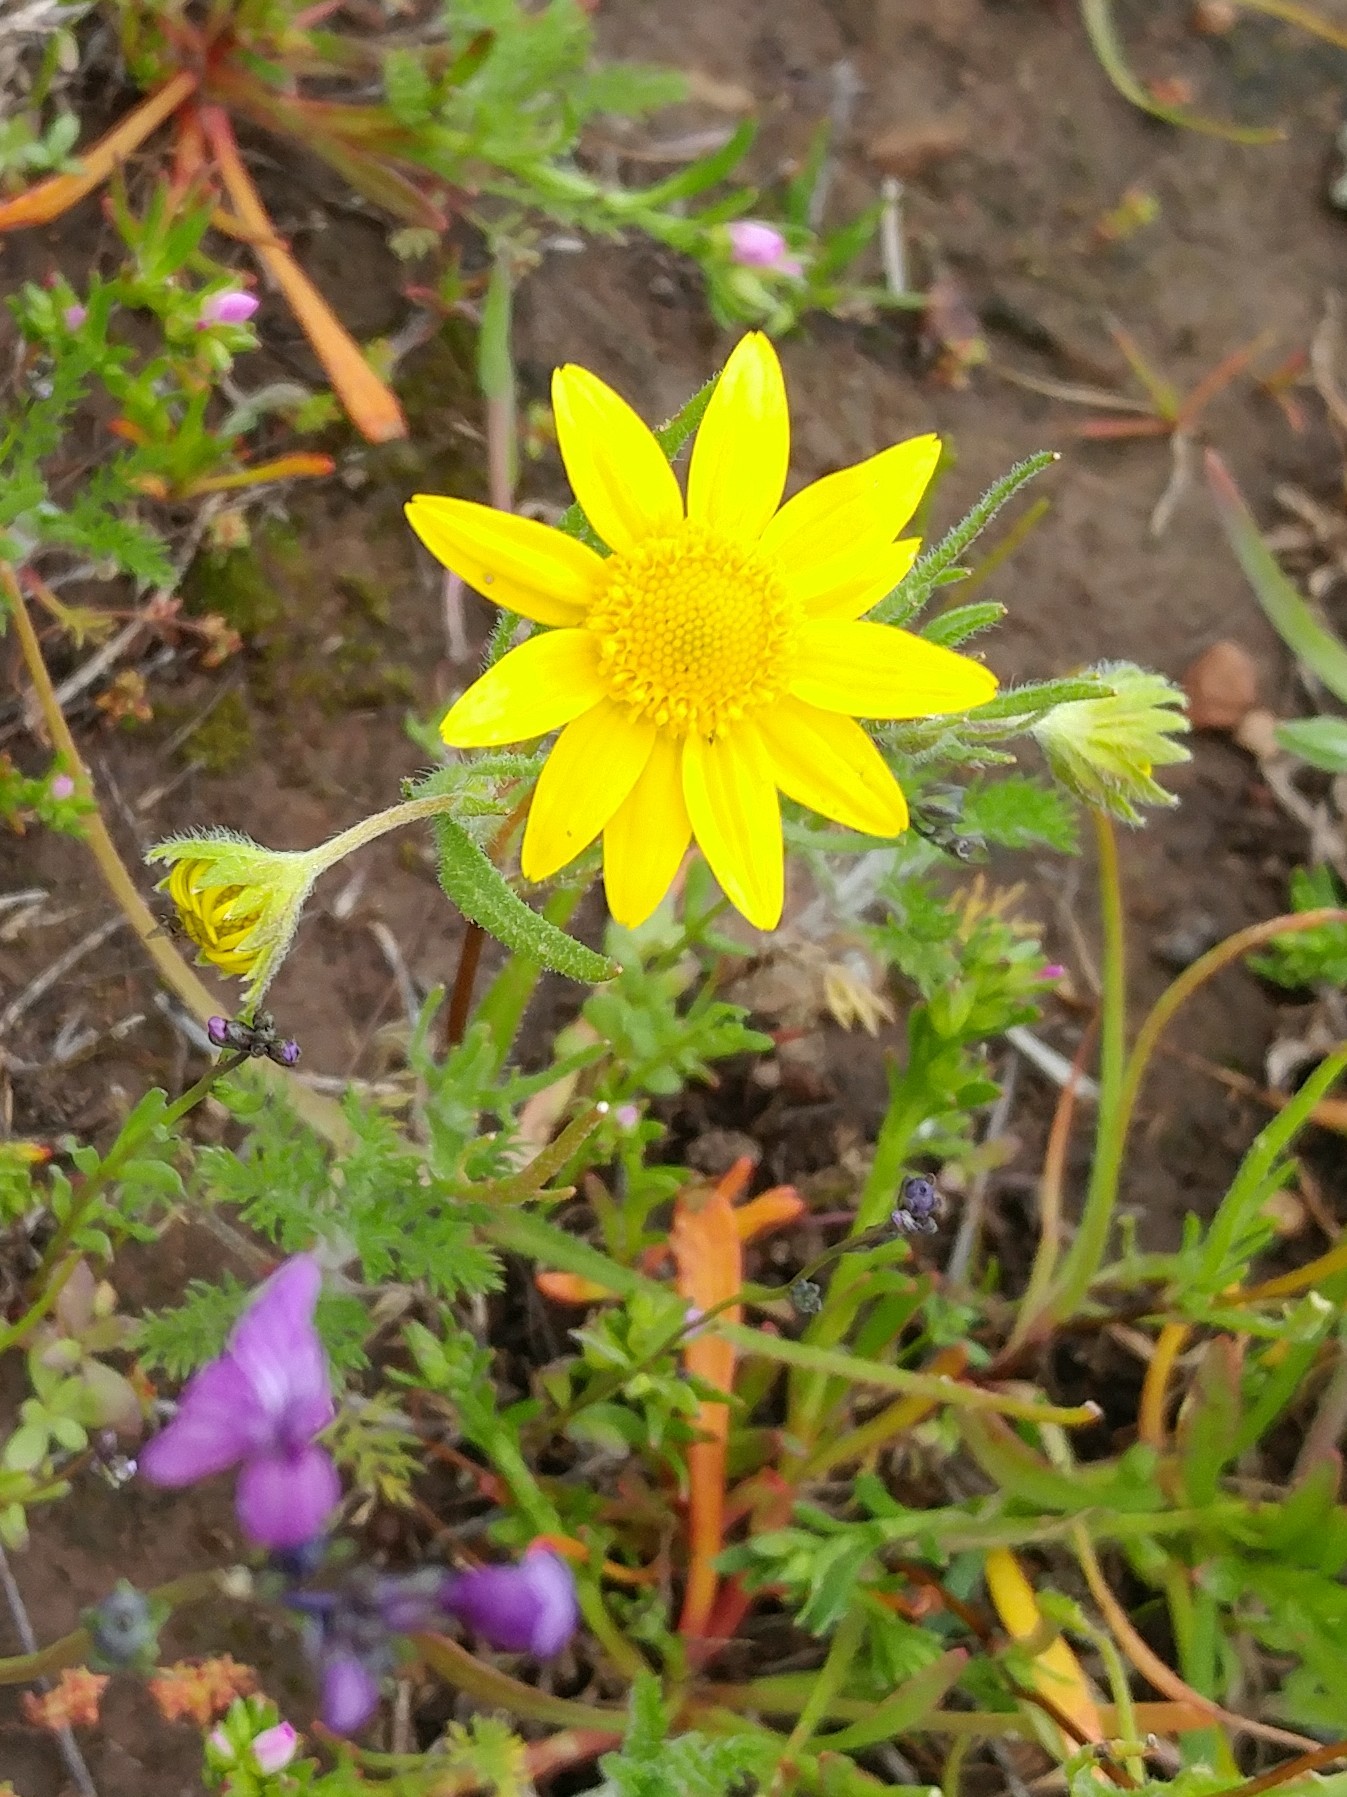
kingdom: Plantae
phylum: Tracheophyta
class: Magnoliopsida
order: Asterales
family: Asteraceae
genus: Lasthenia
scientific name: Lasthenia gracilis
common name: Common goldfields
